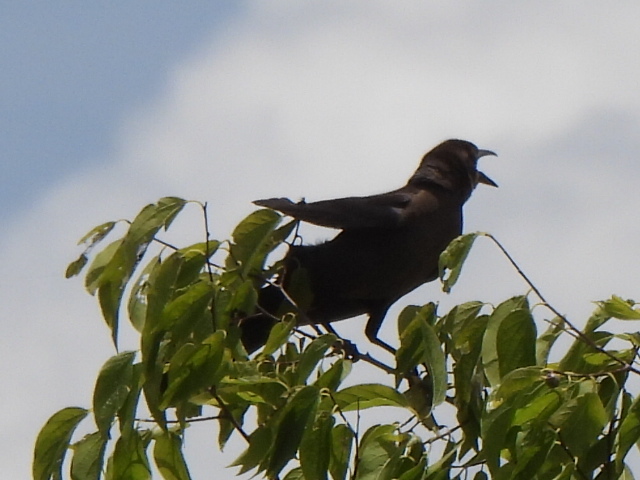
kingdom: Animalia
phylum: Chordata
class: Aves
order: Passeriformes
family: Icteridae
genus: Quiscalus
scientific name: Quiscalus mexicanus
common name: Great-tailed grackle
